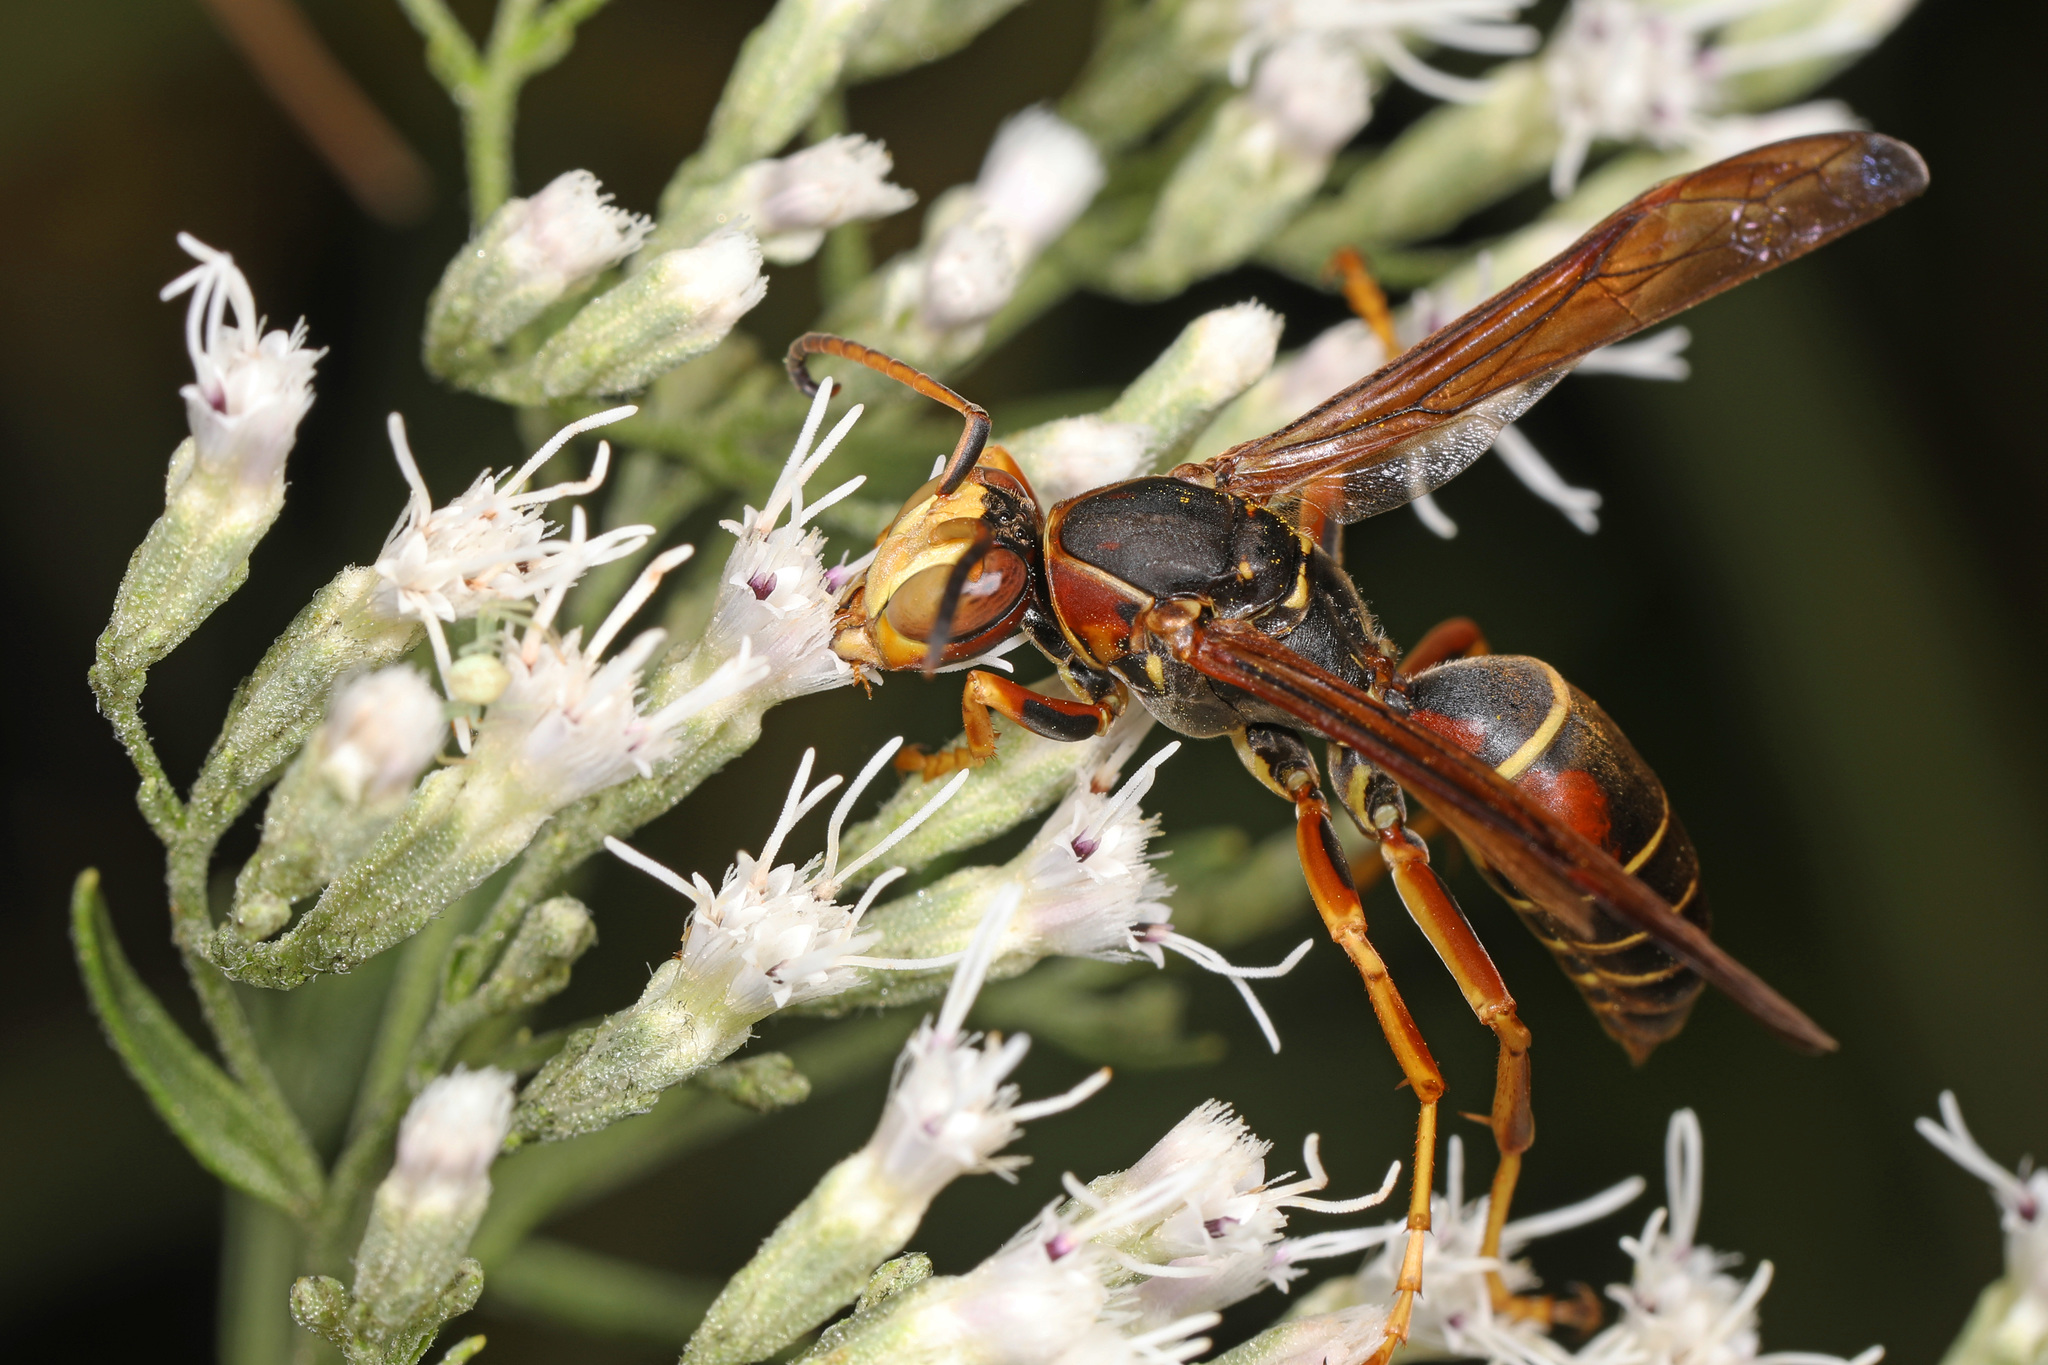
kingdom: Animalia
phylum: Arthropoda
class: Insecta
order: Hymenoptera
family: Eumenidae
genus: Polistes
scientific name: Polistes fuscatus
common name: Dark paper wasp
